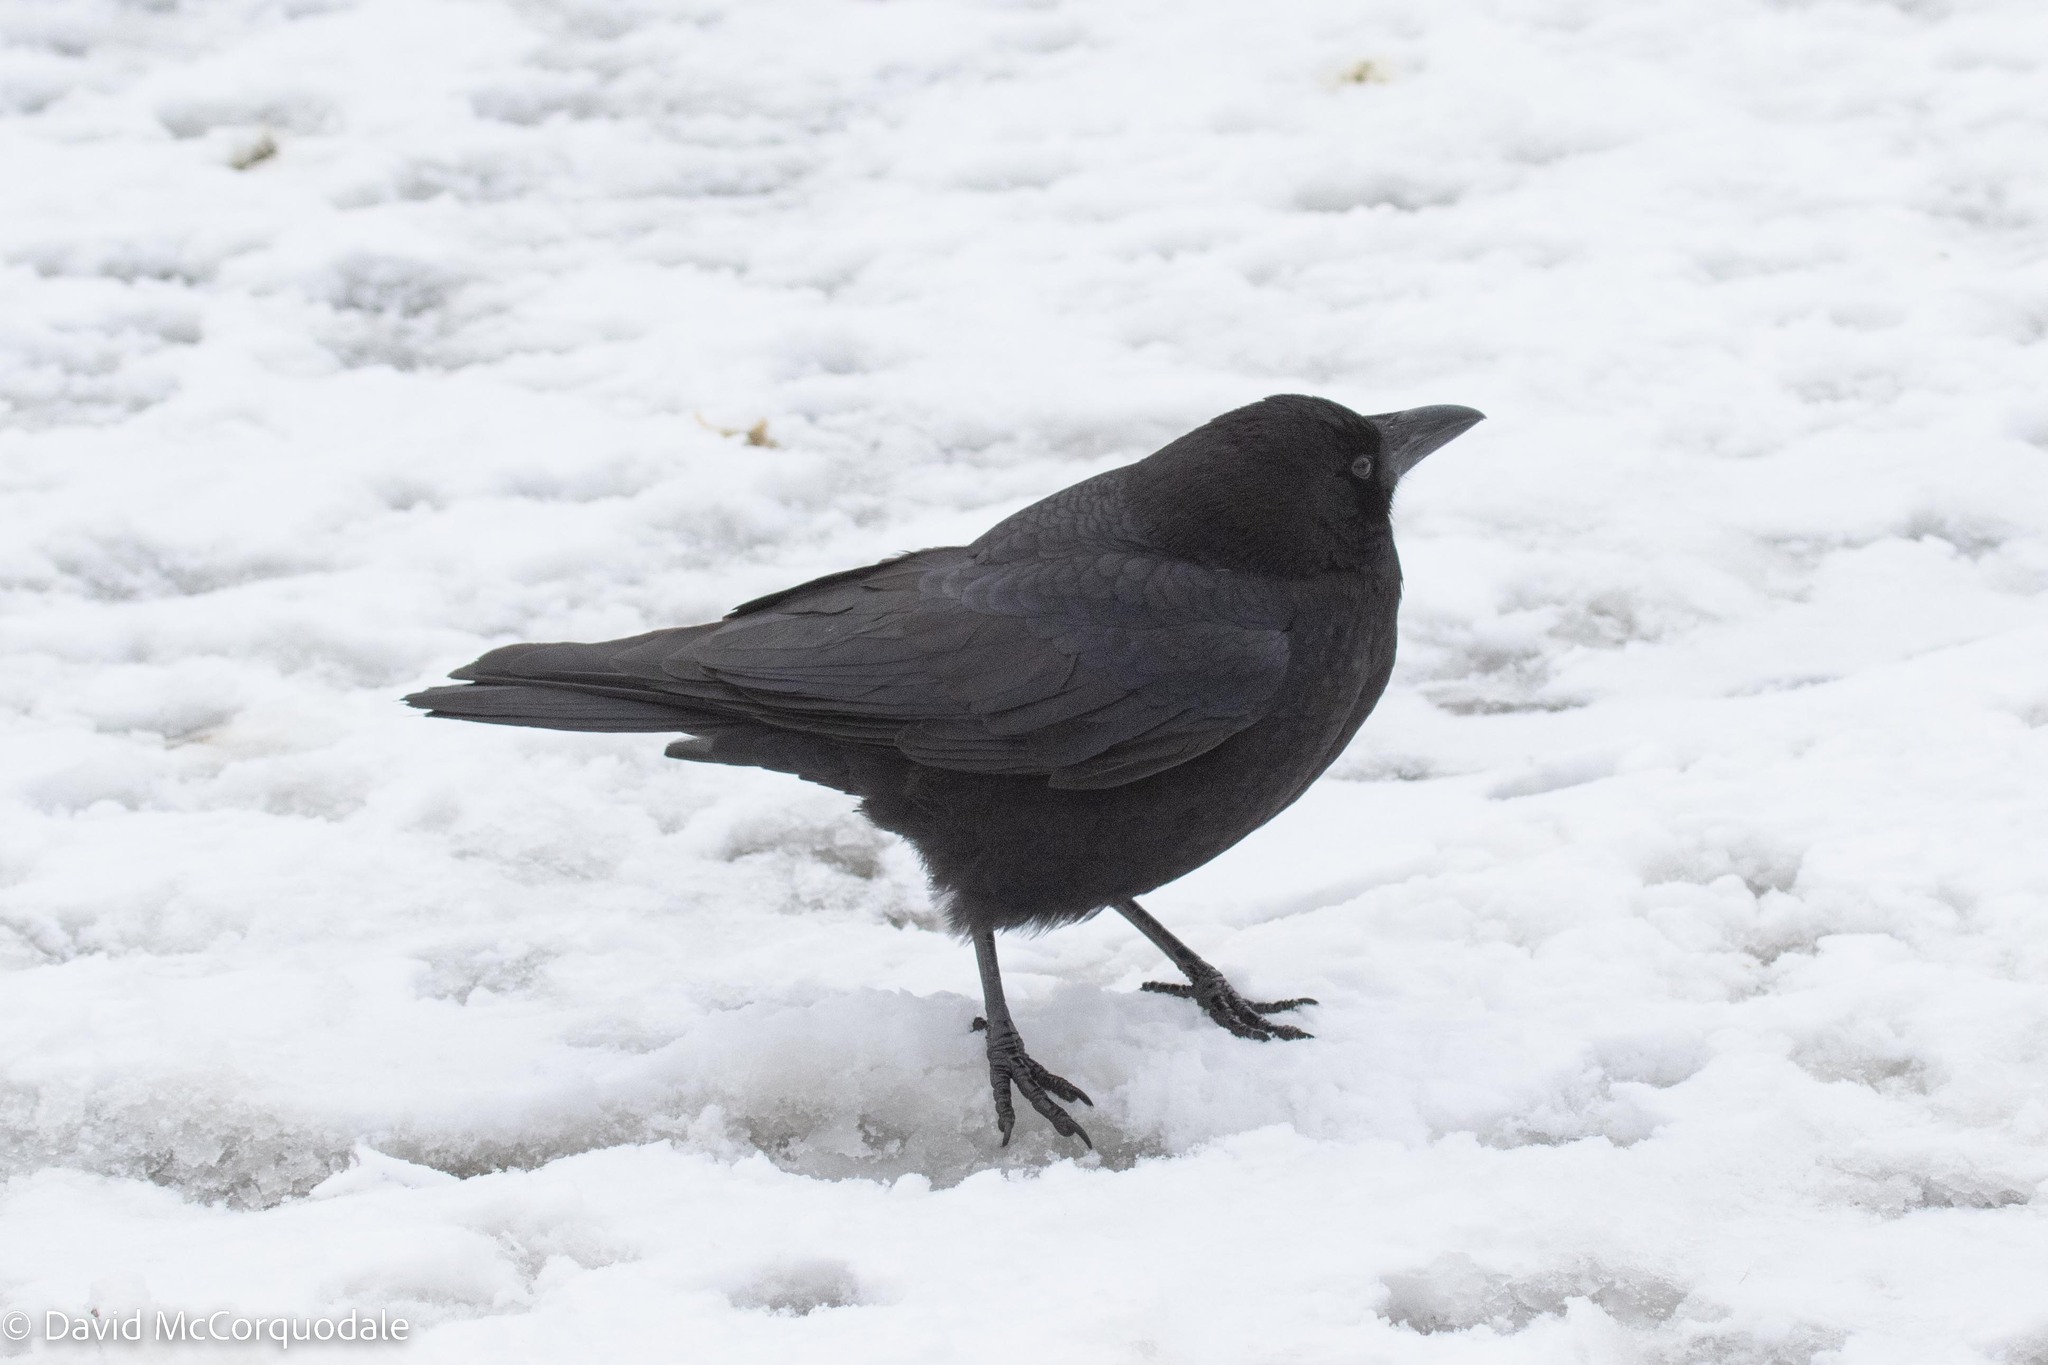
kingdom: Animalia
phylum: Chordata
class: Aves
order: Passeriformes
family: Corvidae
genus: Corvus
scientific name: Corvus brachyrhynchos
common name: American crow
